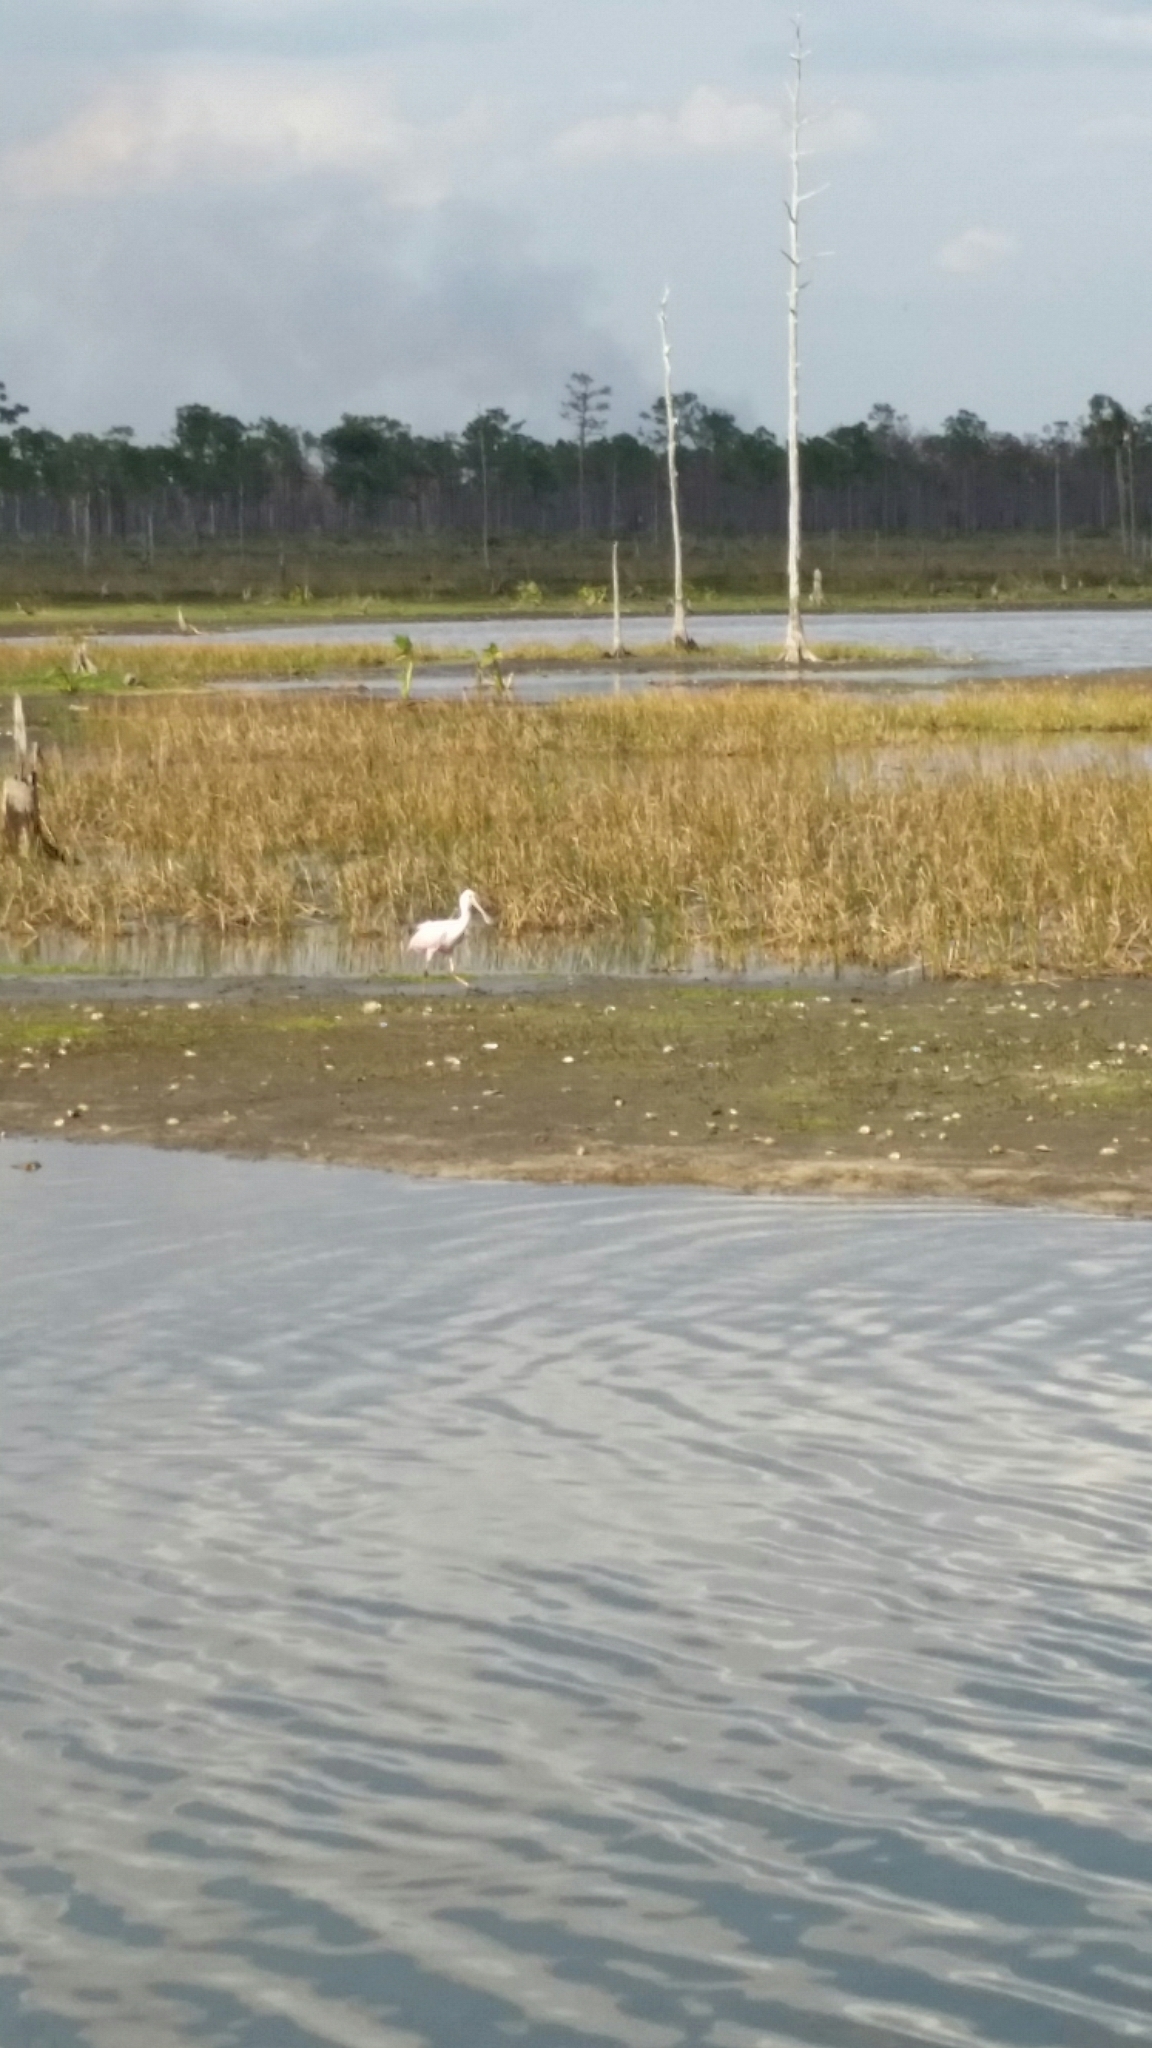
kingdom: Animalia
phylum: Chordata
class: Aves
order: Pelecaniformes
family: Threskiornithidae
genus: Platalea
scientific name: Platalea ajaja
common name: Roseate spoonbill
